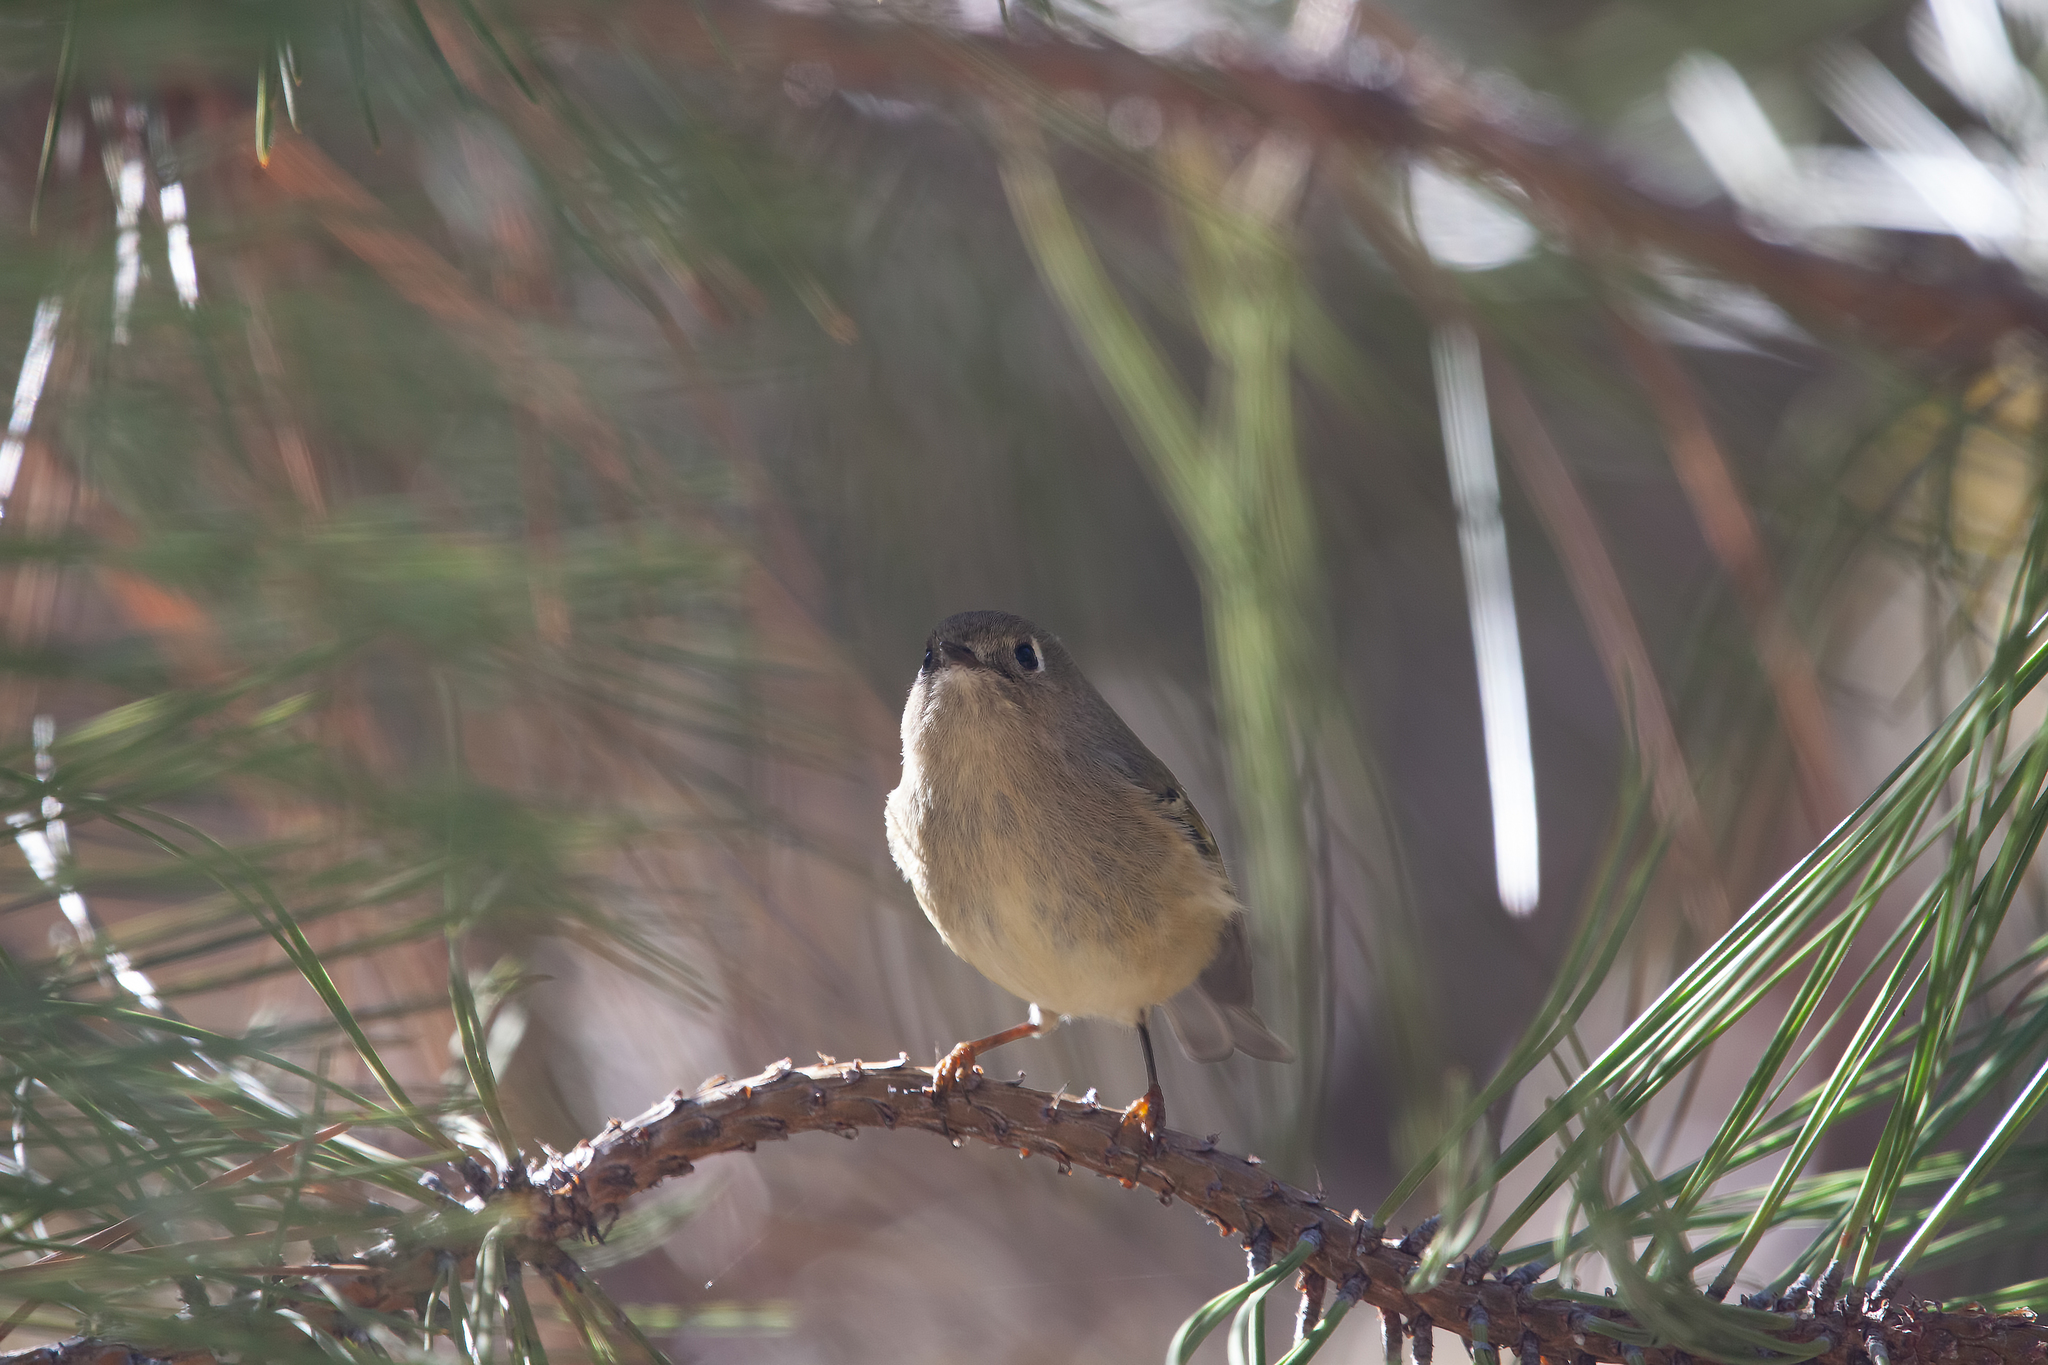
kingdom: Animalia
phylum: Chordata
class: Aves
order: Passeriformes
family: Regulidae
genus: Regulus
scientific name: Regulus calendula
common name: Ruby-crowned kinglet
